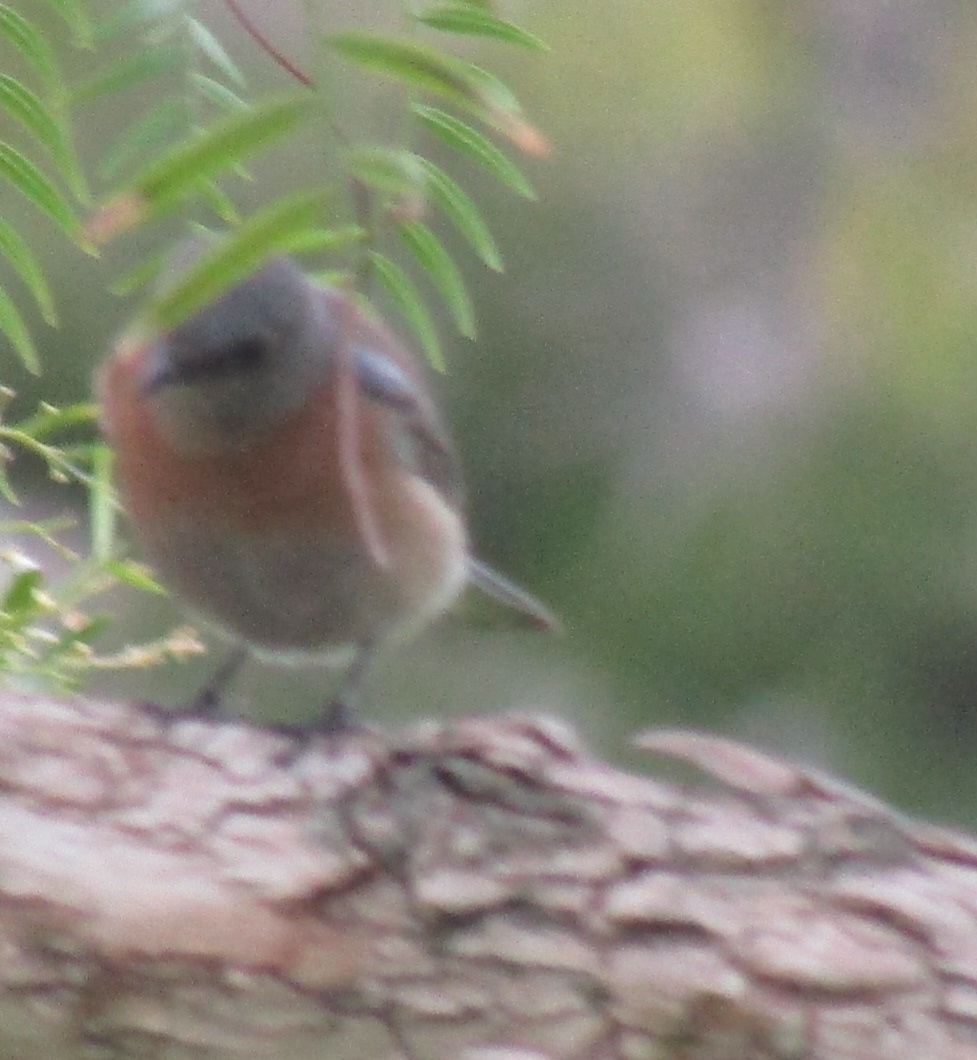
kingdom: Animalia
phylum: Chordata
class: Aves
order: Passeriformes
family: Turdidae
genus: Sialia
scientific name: Sialia mexicana
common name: Western bluebird
